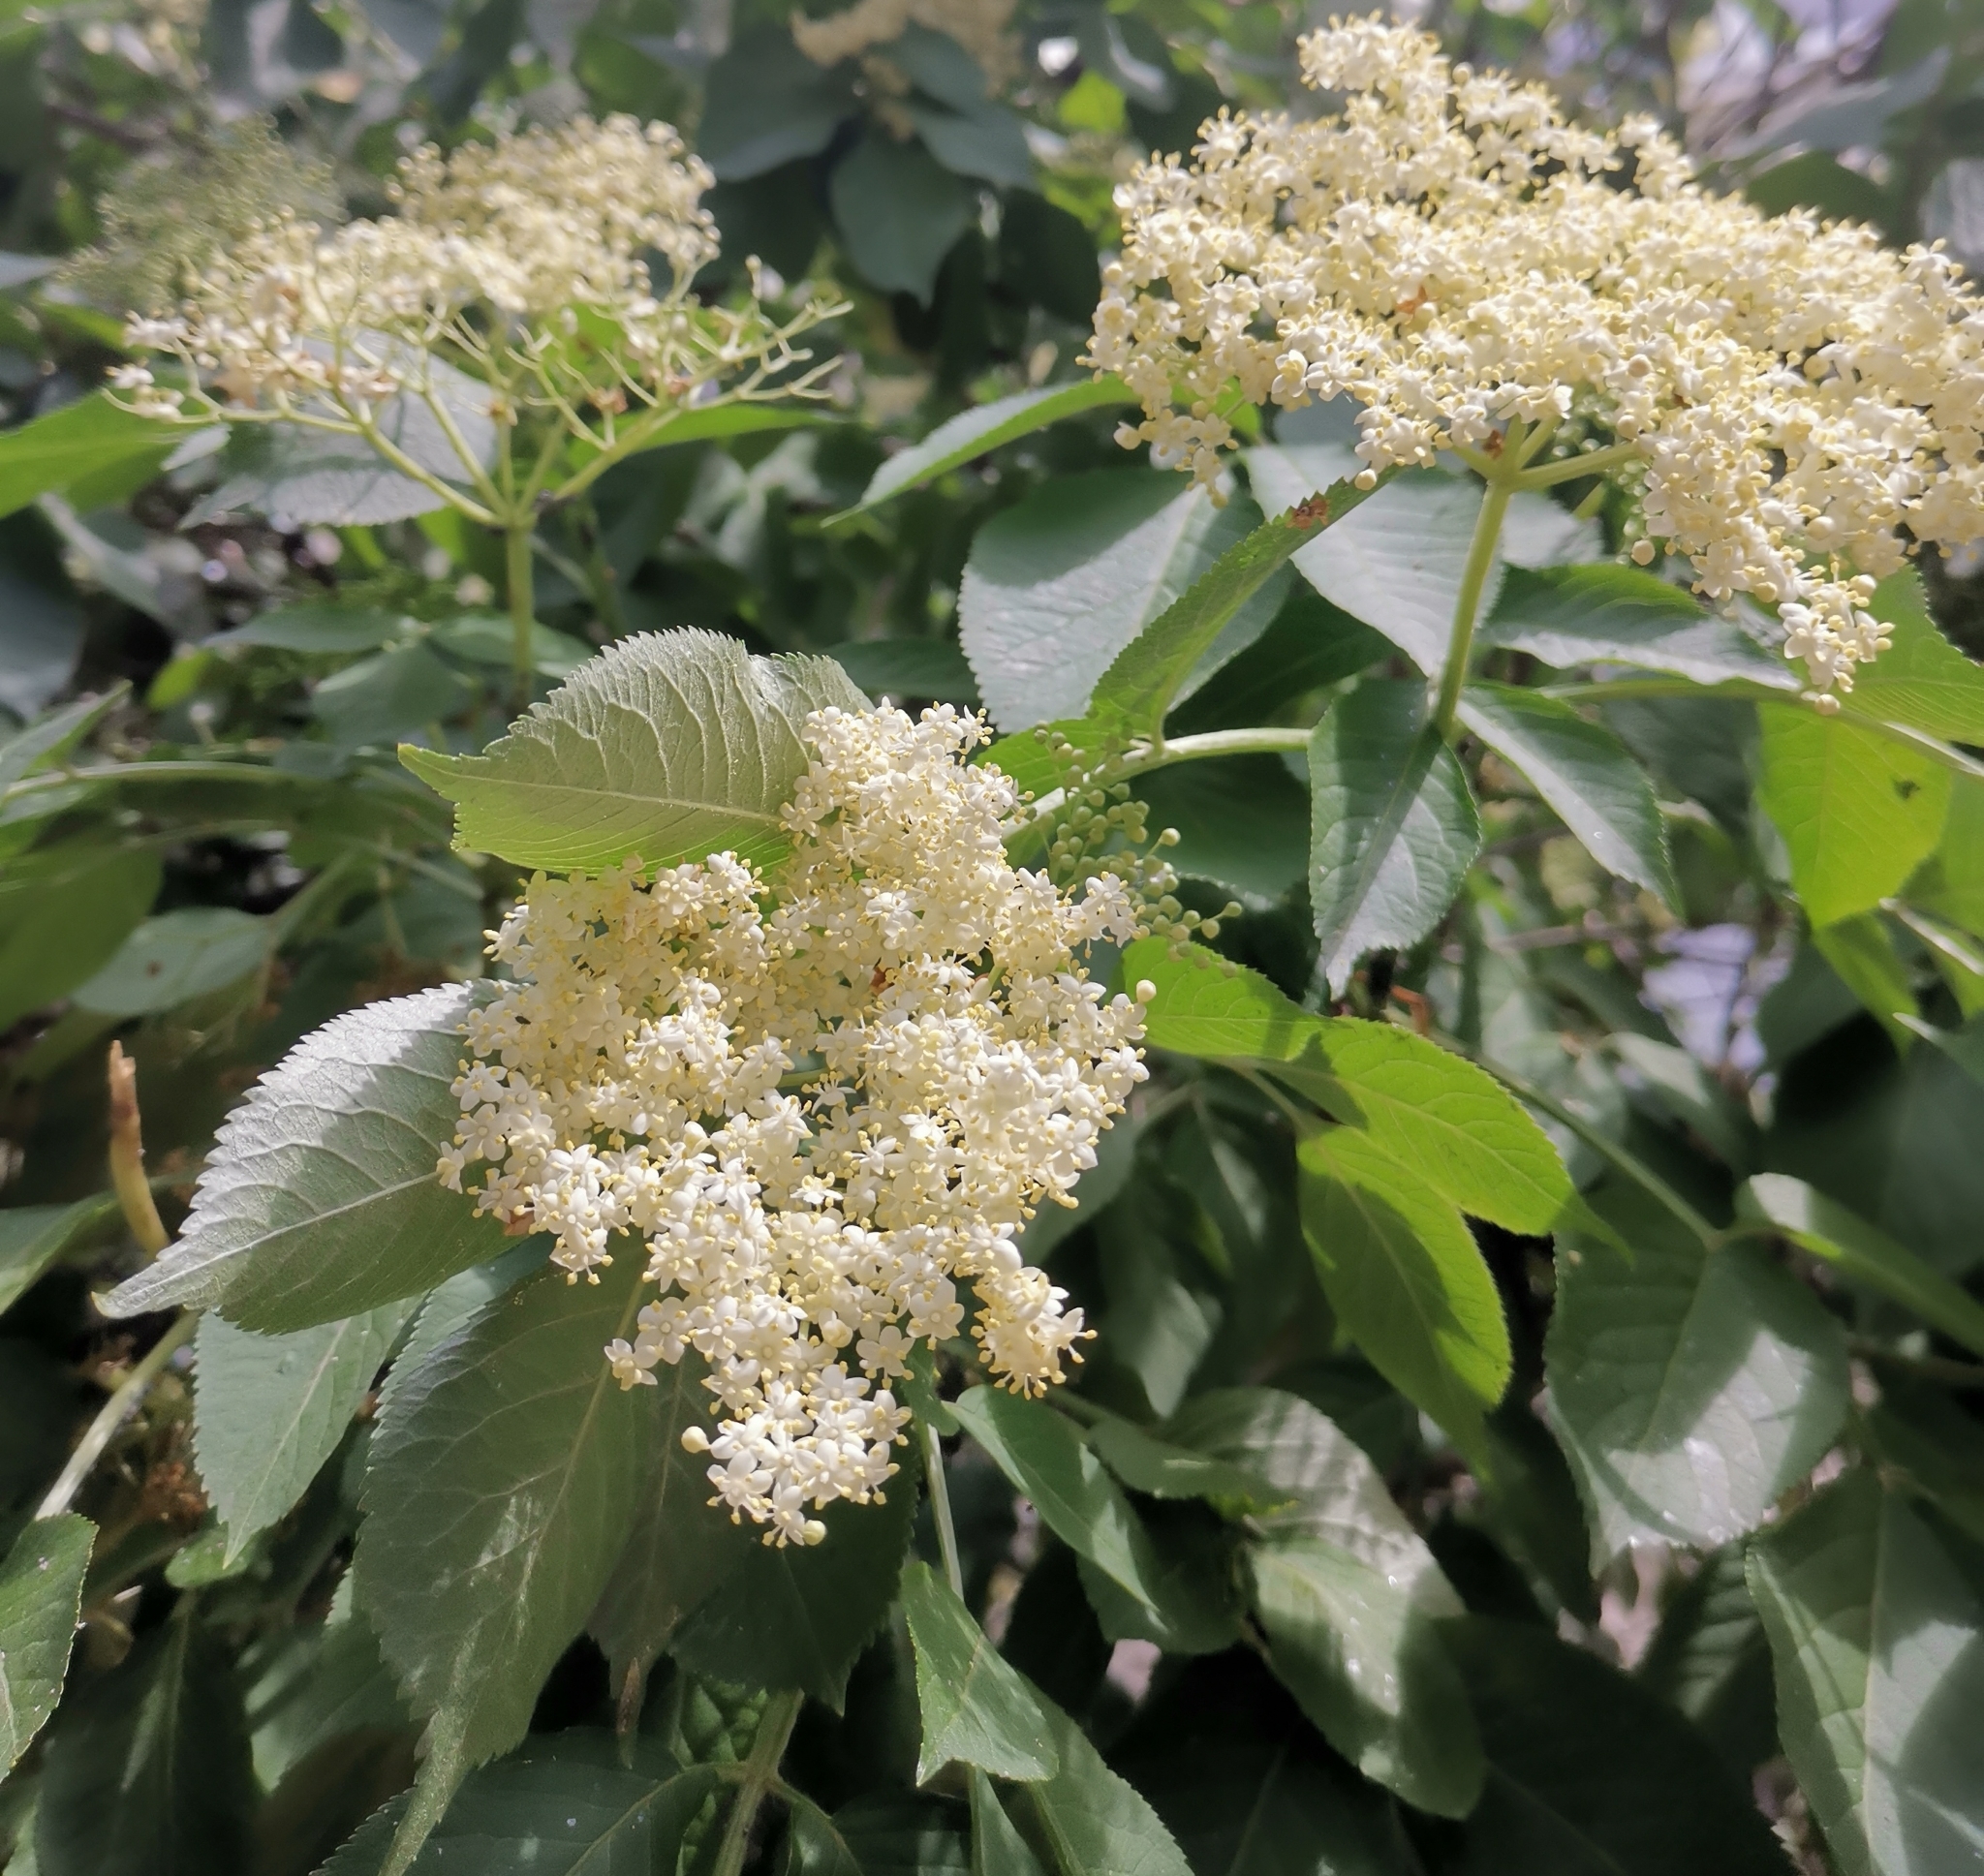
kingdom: Plantae
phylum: Tracheophyta
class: Magnoliopsida
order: Dipsacales
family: Viburnaceae
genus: Sambucus
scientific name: Sambucus nigra
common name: Elder
